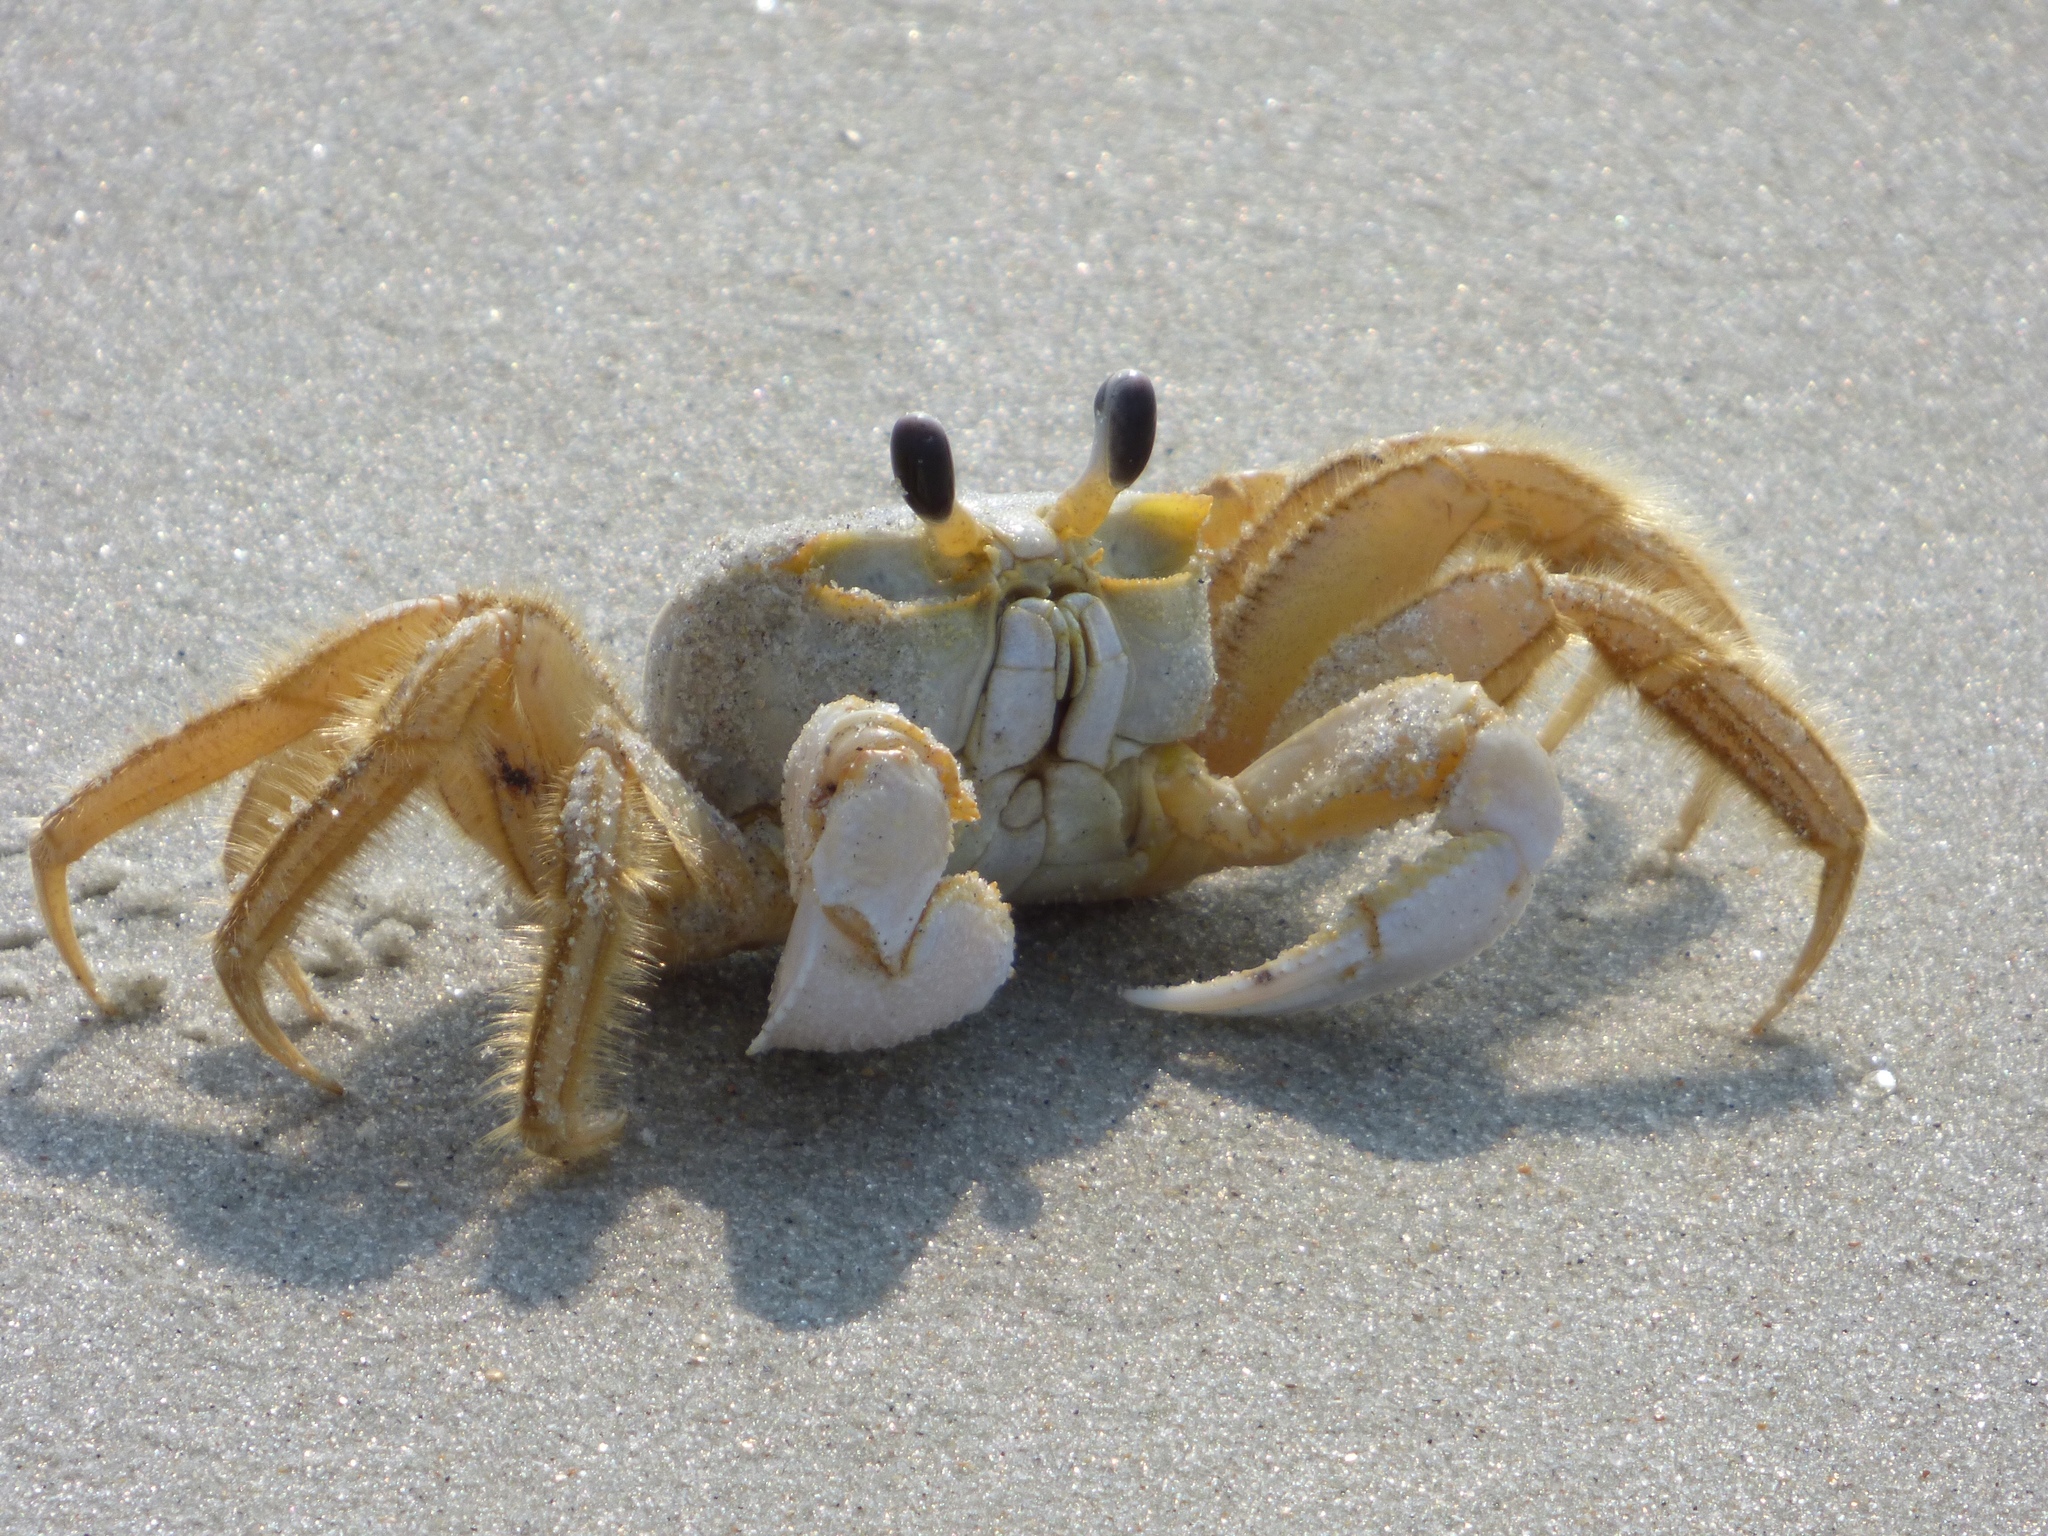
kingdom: Animalia
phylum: Arthropoda
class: Malacostraca
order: Decapoda
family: Ocypodidae
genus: Ocypode
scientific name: Ocypode quadrata
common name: Ghost crab
